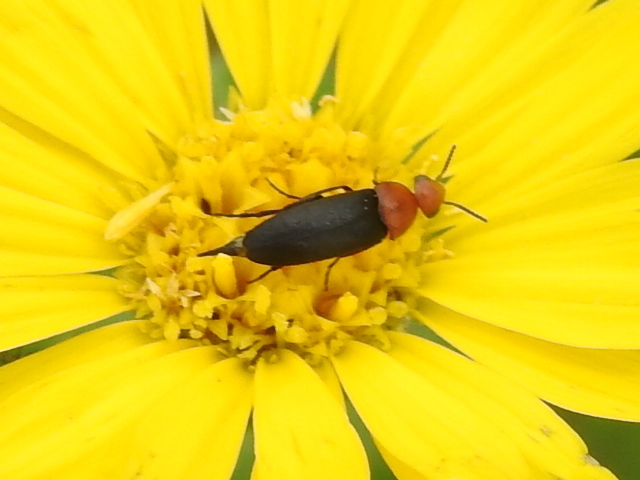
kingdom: Animalia
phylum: Arthropoda
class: Insecta
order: Coleoptera
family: Mordellidae
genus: Mordellistena
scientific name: Mordellistena cervicalis
